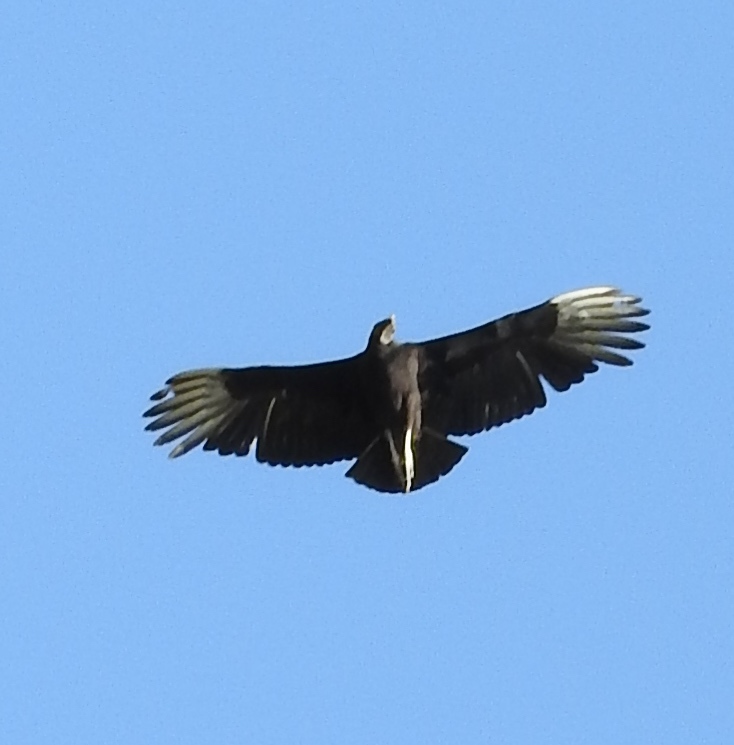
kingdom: Animalia
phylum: Chordata
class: Aves
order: Accipitriformes
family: Cathartidae
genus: Coragyps
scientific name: Coragyps atratus
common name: Black vulture
